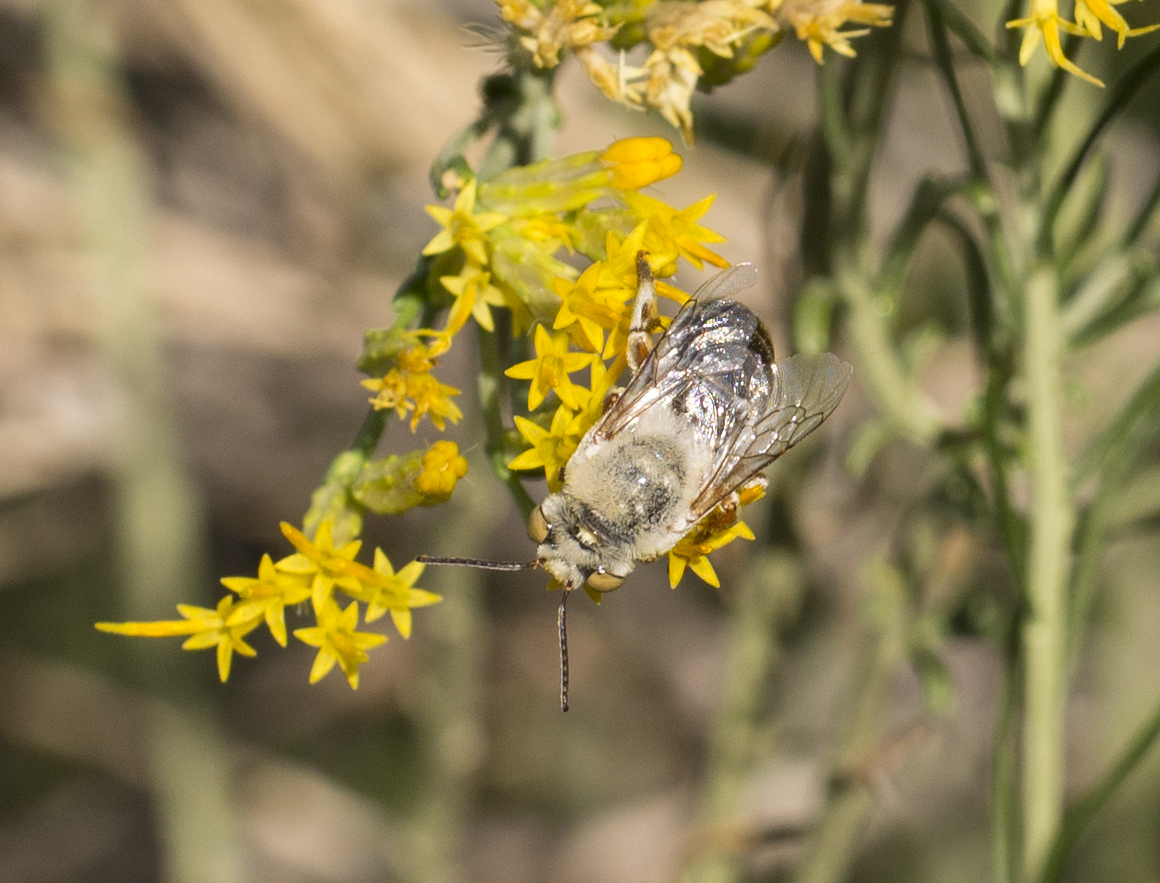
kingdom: Animalia
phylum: Arthropoda
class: Insecta
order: Hymenoptera
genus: Paracentris
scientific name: Paracentris
